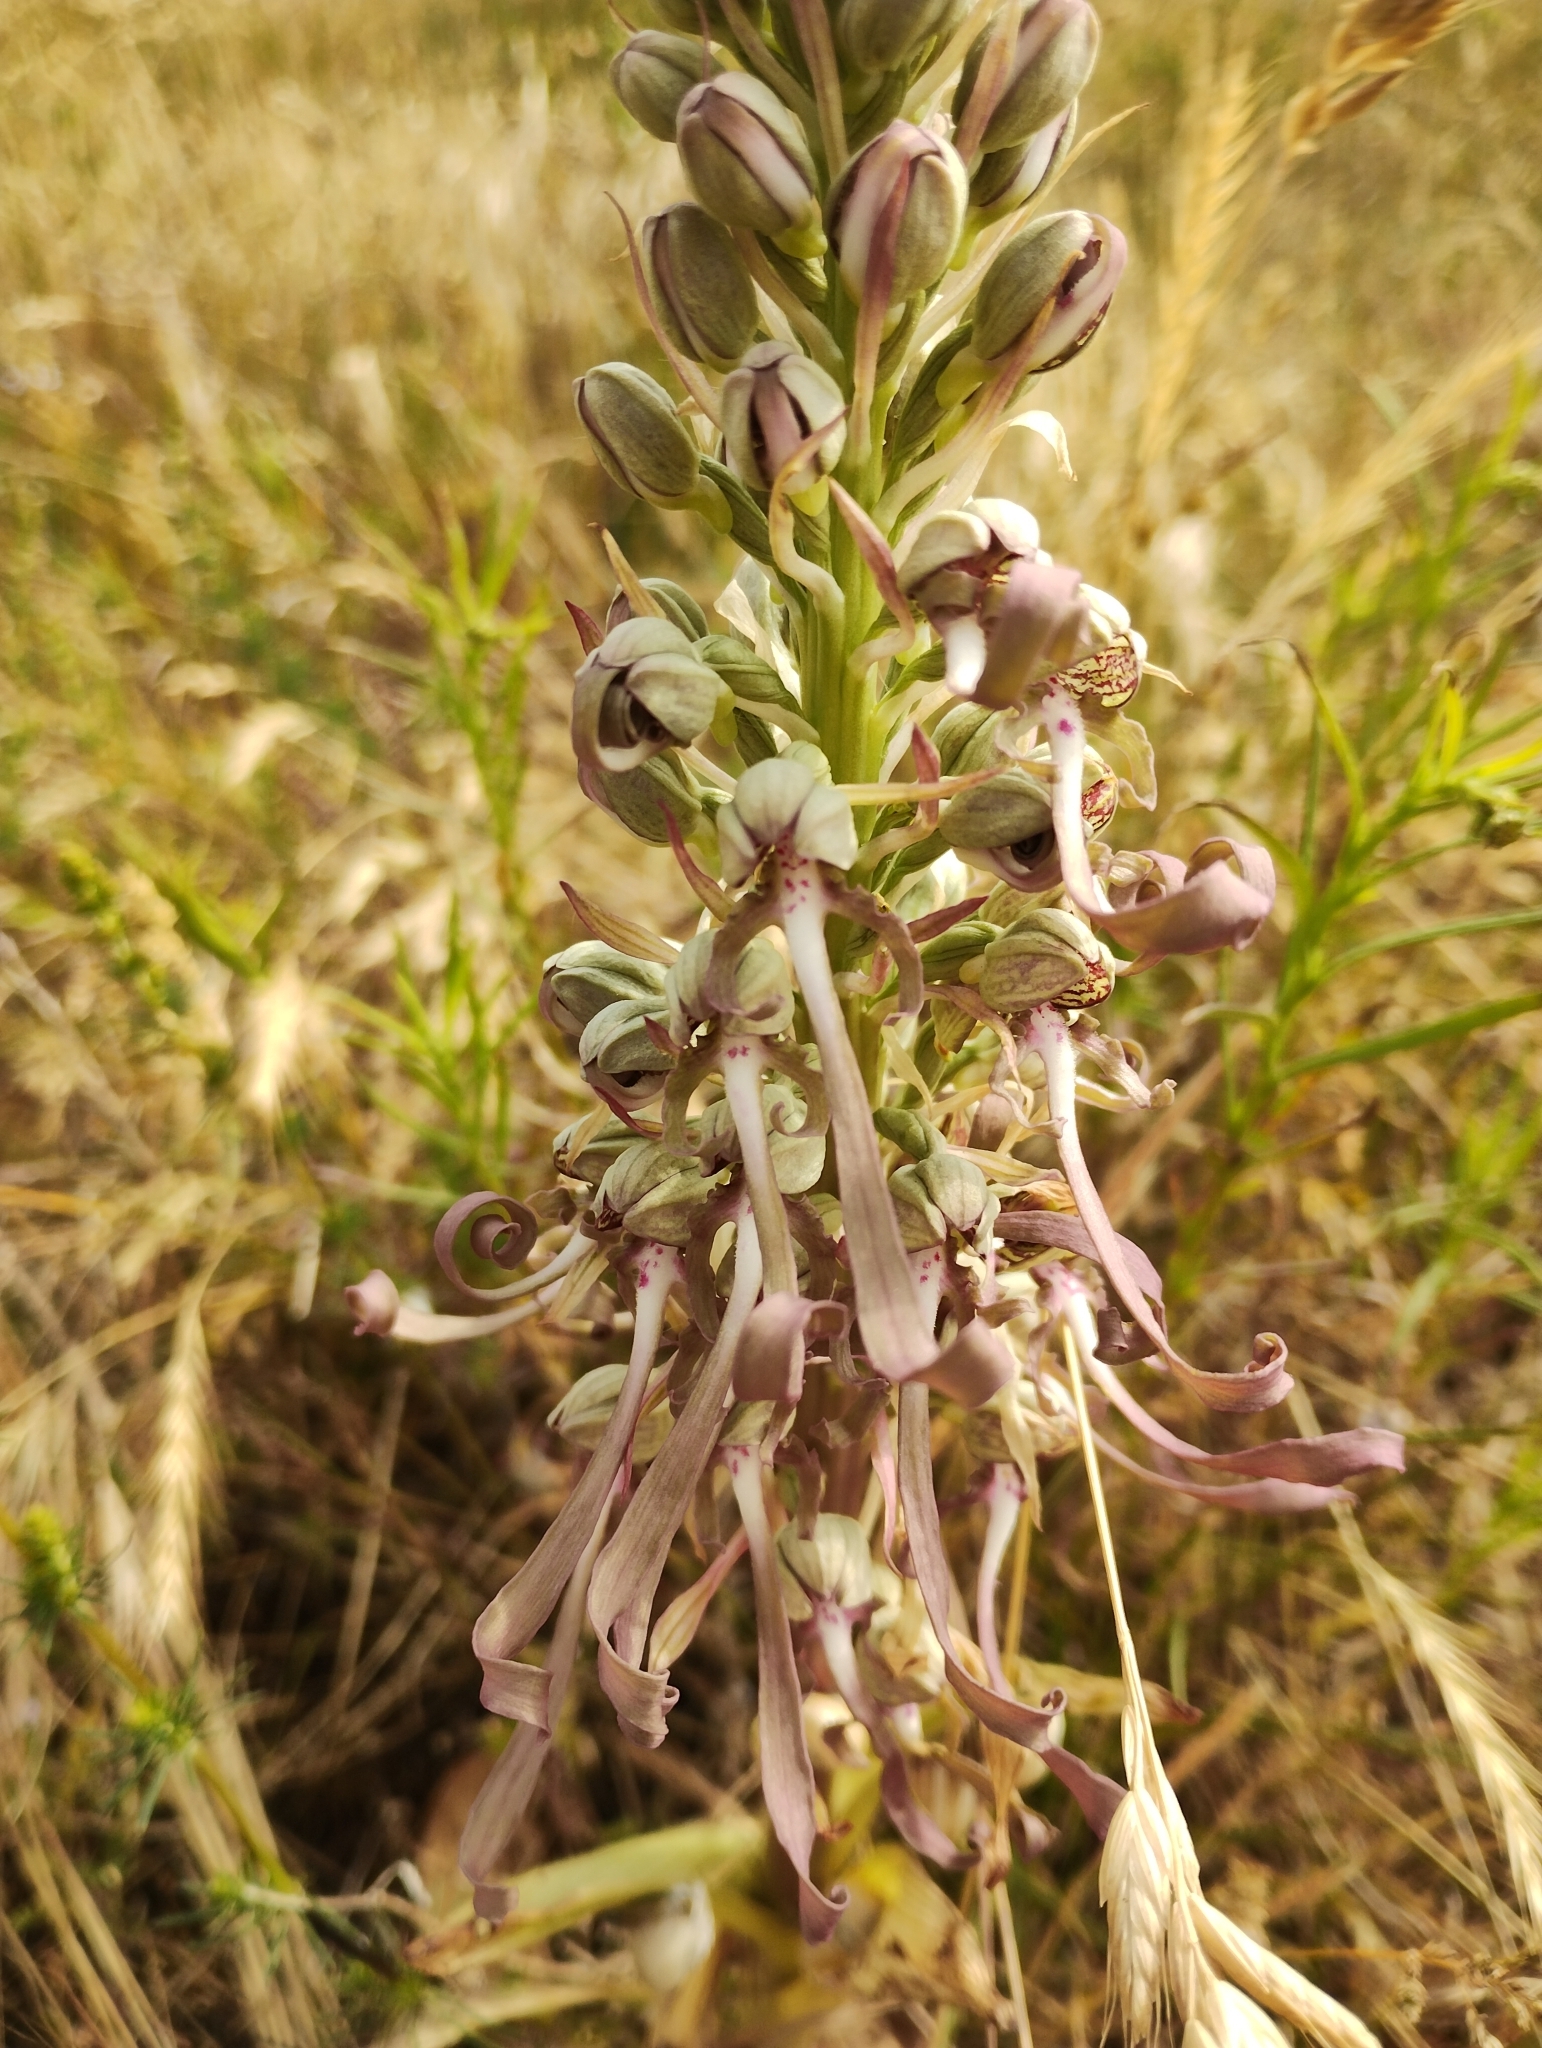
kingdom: Plantae
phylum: Tracheophyta
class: Liliopsida
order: Asparagales
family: Orchidaceae
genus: Himantoglossum
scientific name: Himantoglossum hircinum
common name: Lizard orchid
